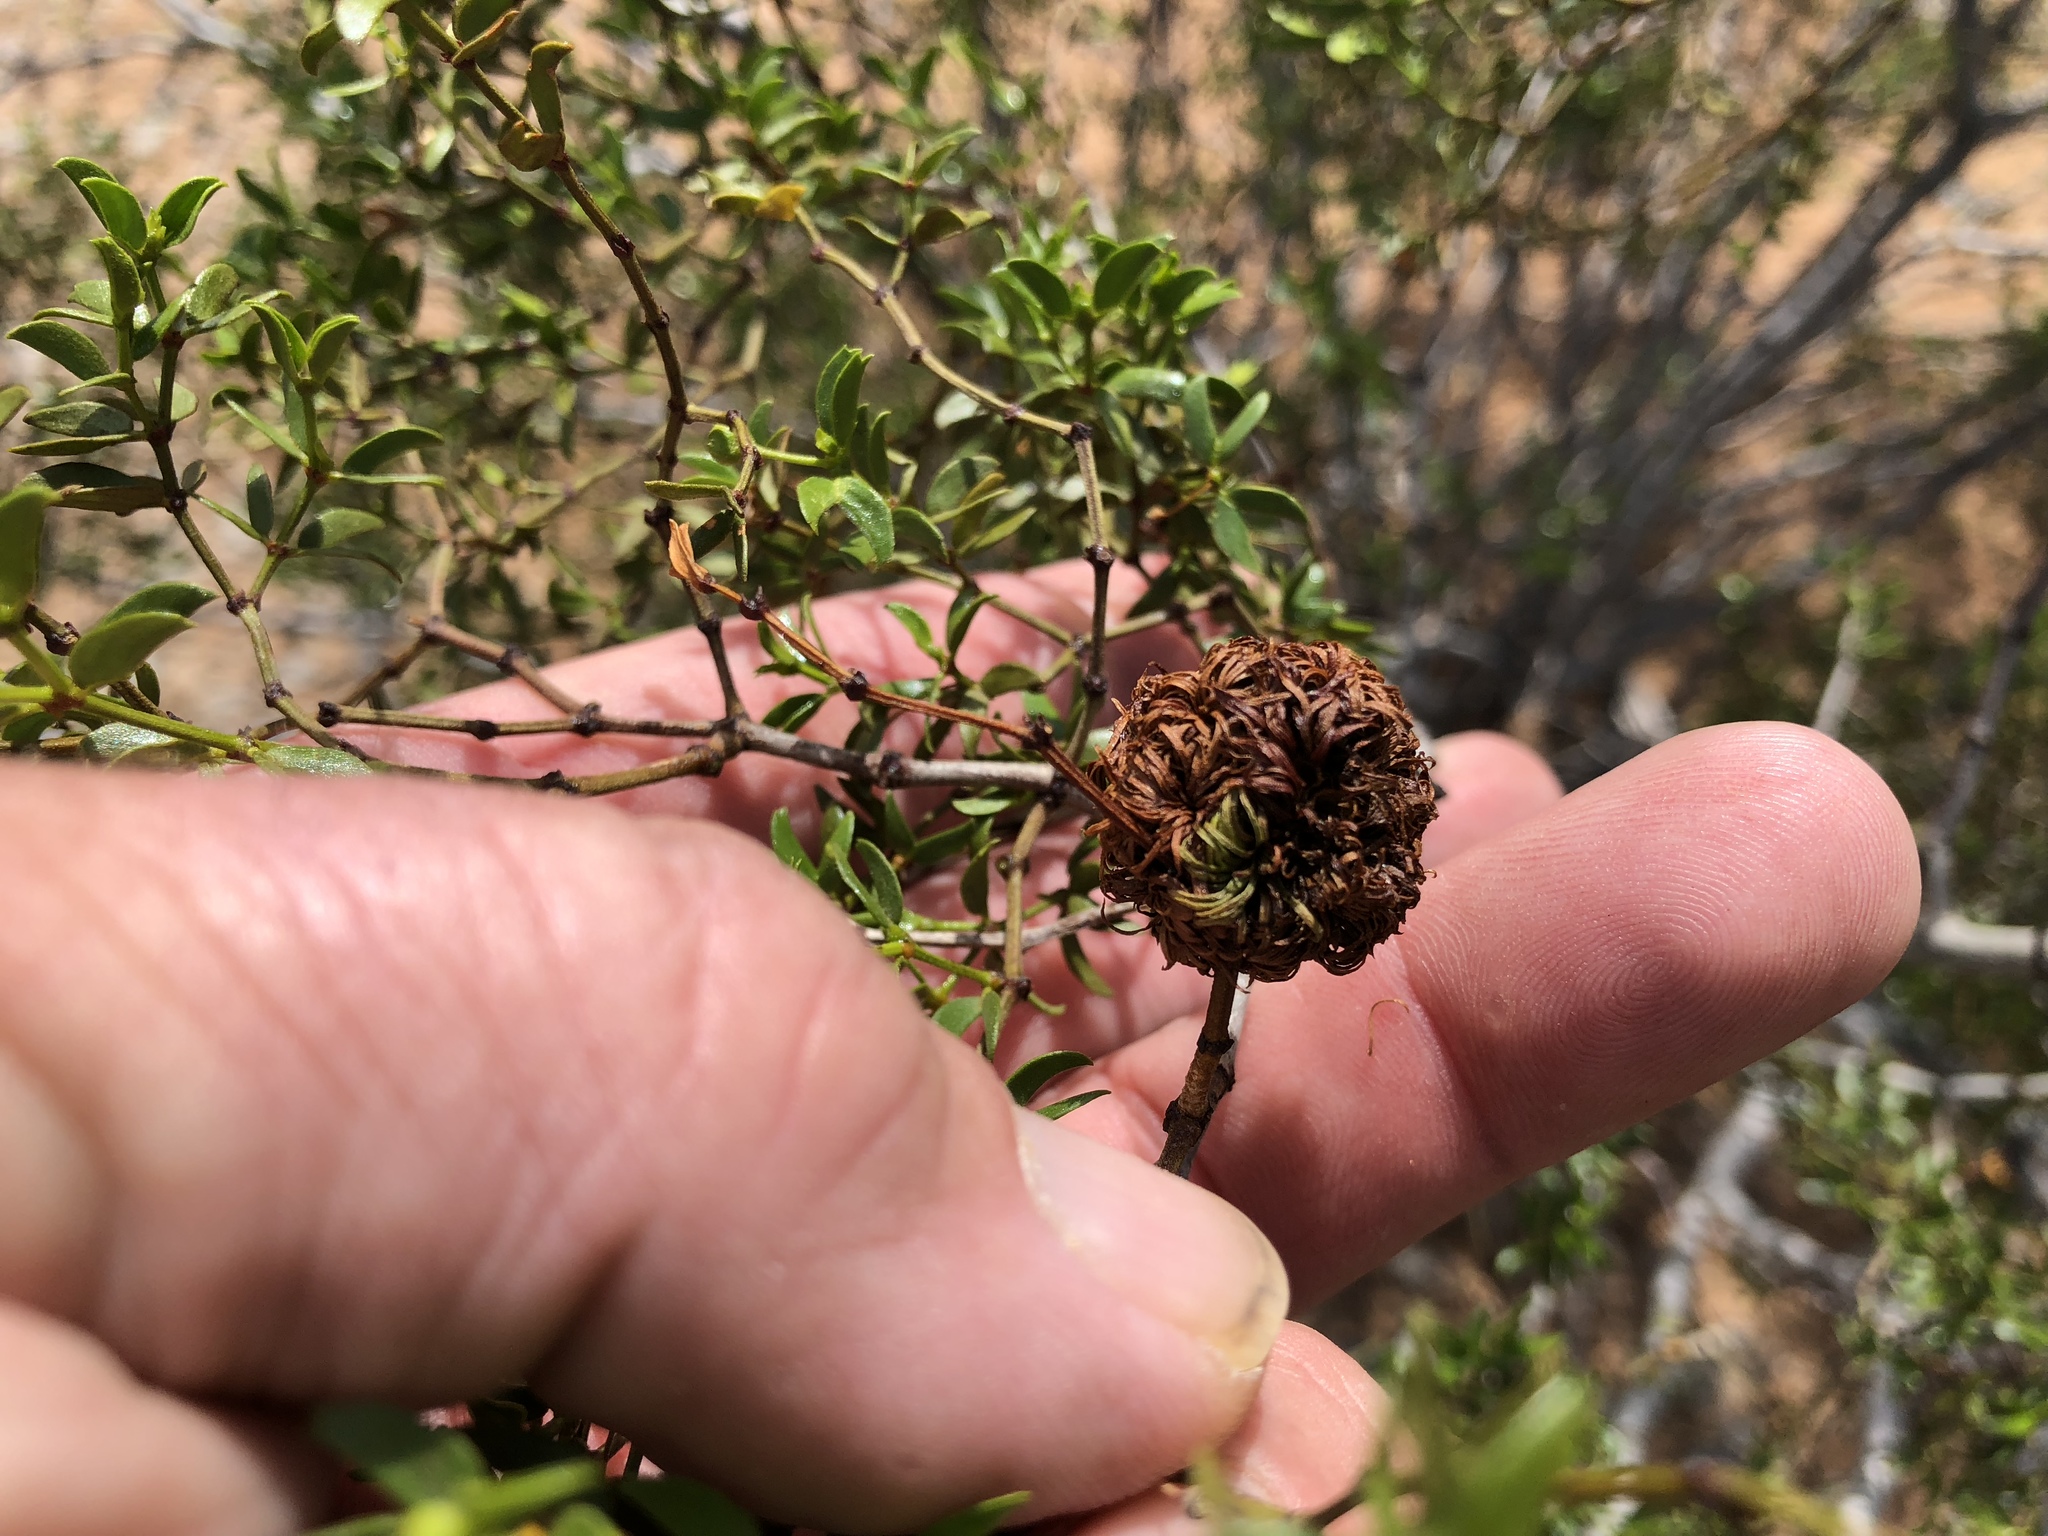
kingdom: Animalia
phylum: Arthropoda
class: Insecta
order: Diptera
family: Cecidomyiidae
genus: Asphondylia
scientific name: Asphondylia auripila
